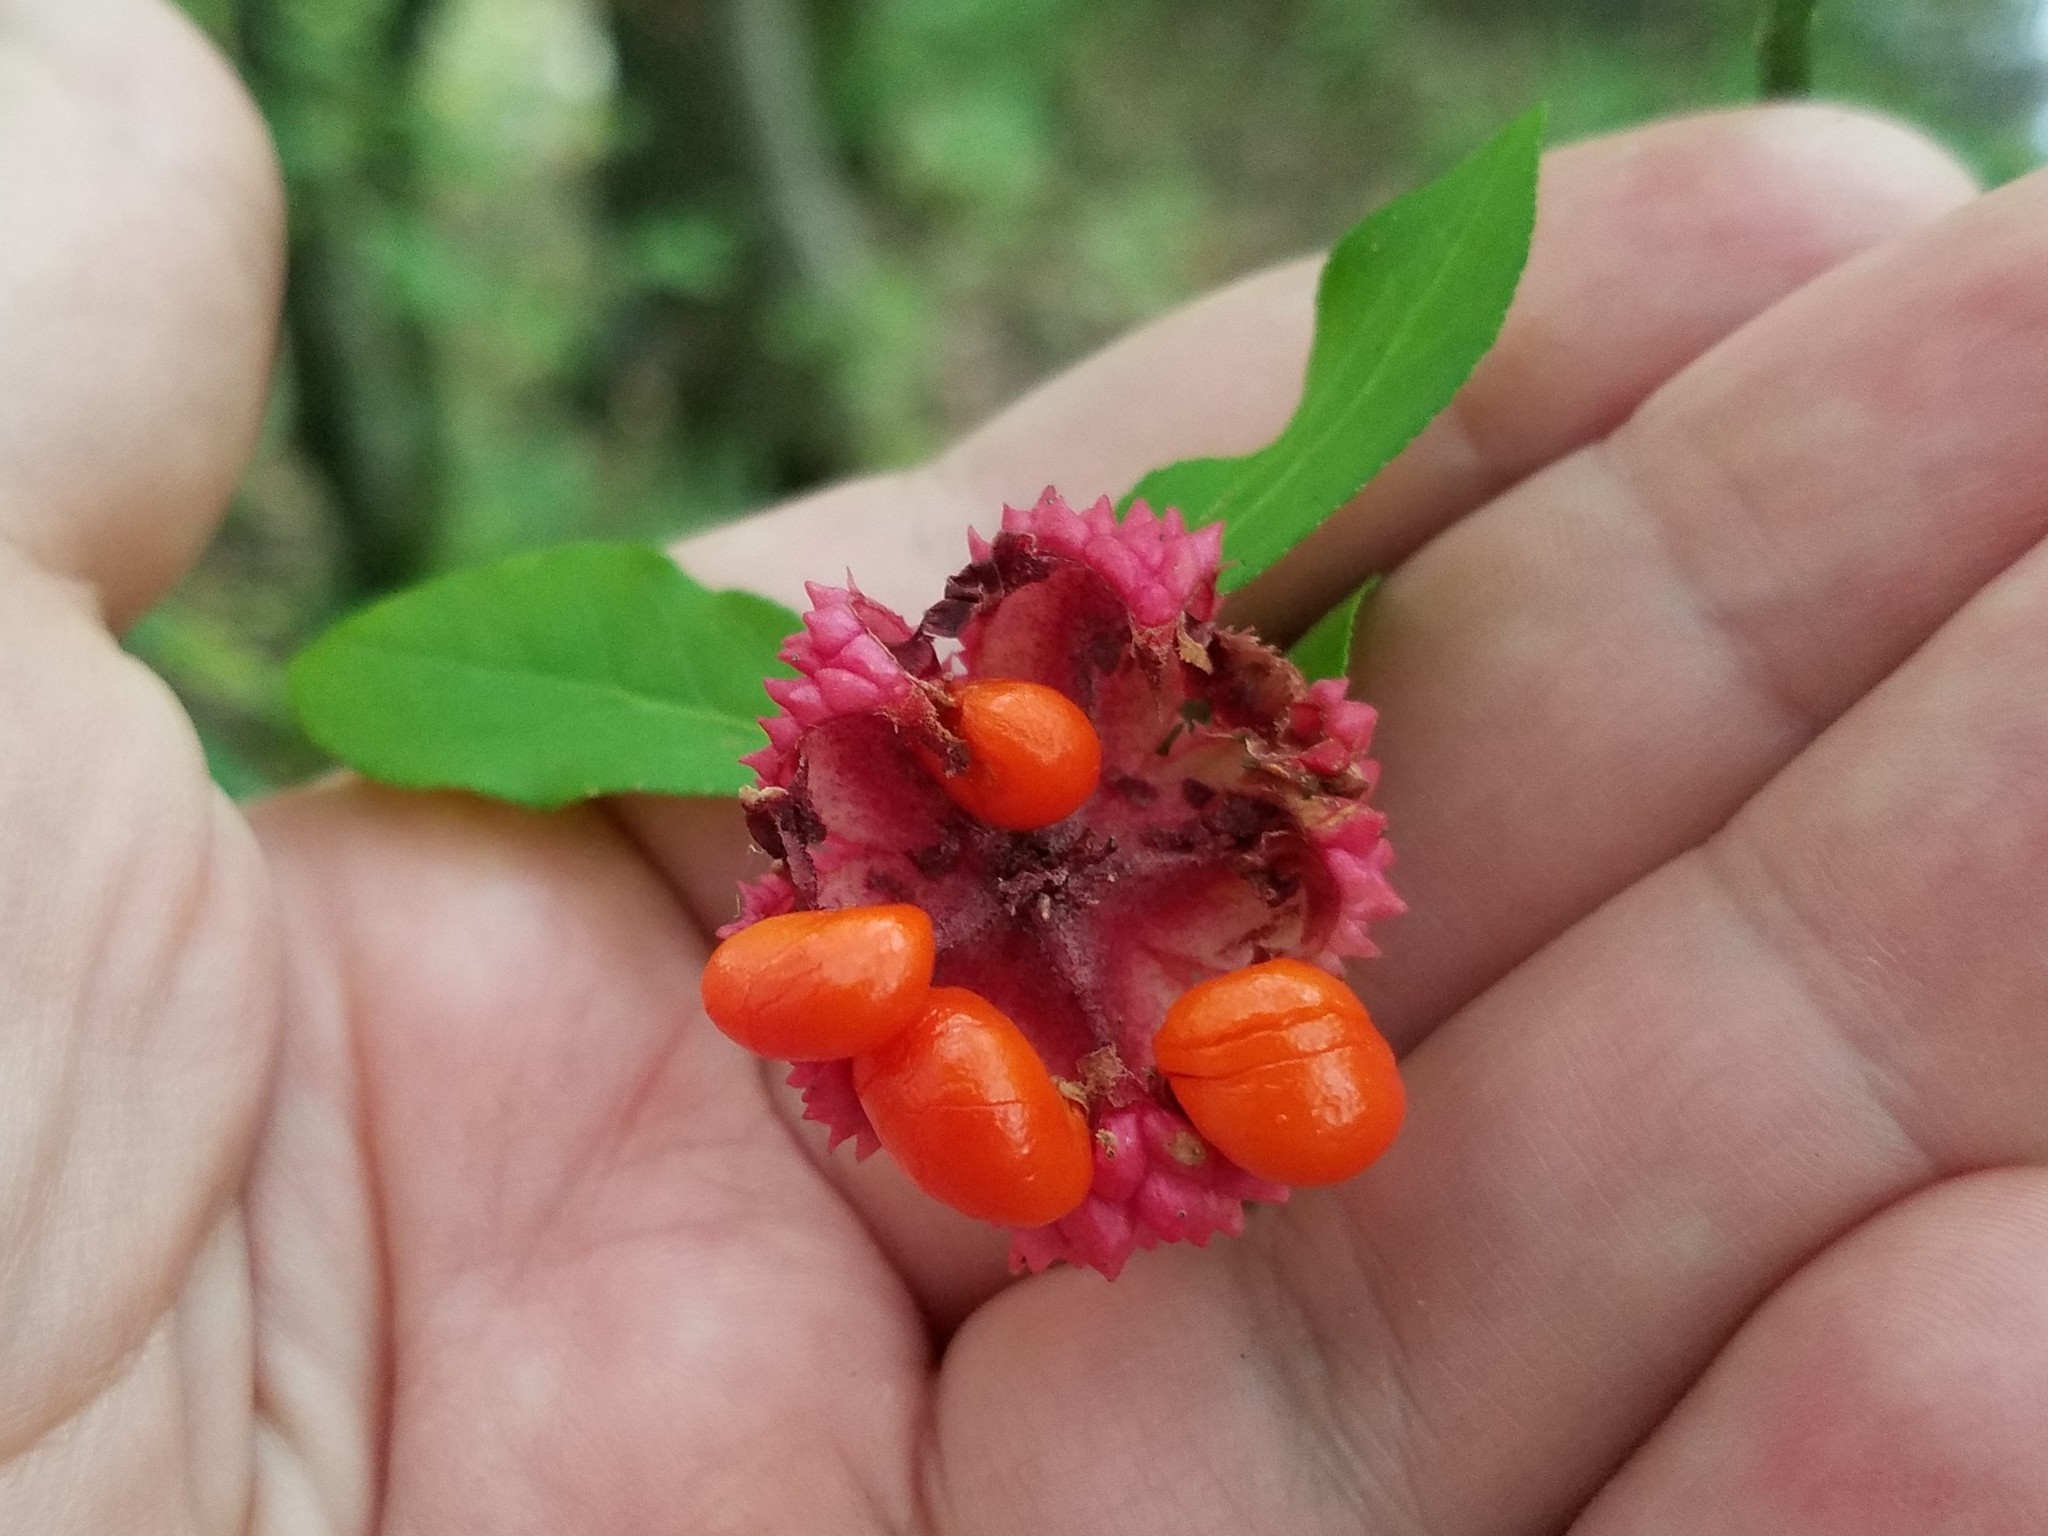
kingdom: Plantae
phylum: Tracheophyta
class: Magnoliopsida
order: Celastrales
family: Celastraceae
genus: Euonymus
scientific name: Euonymus americanus
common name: Bursting-heart
